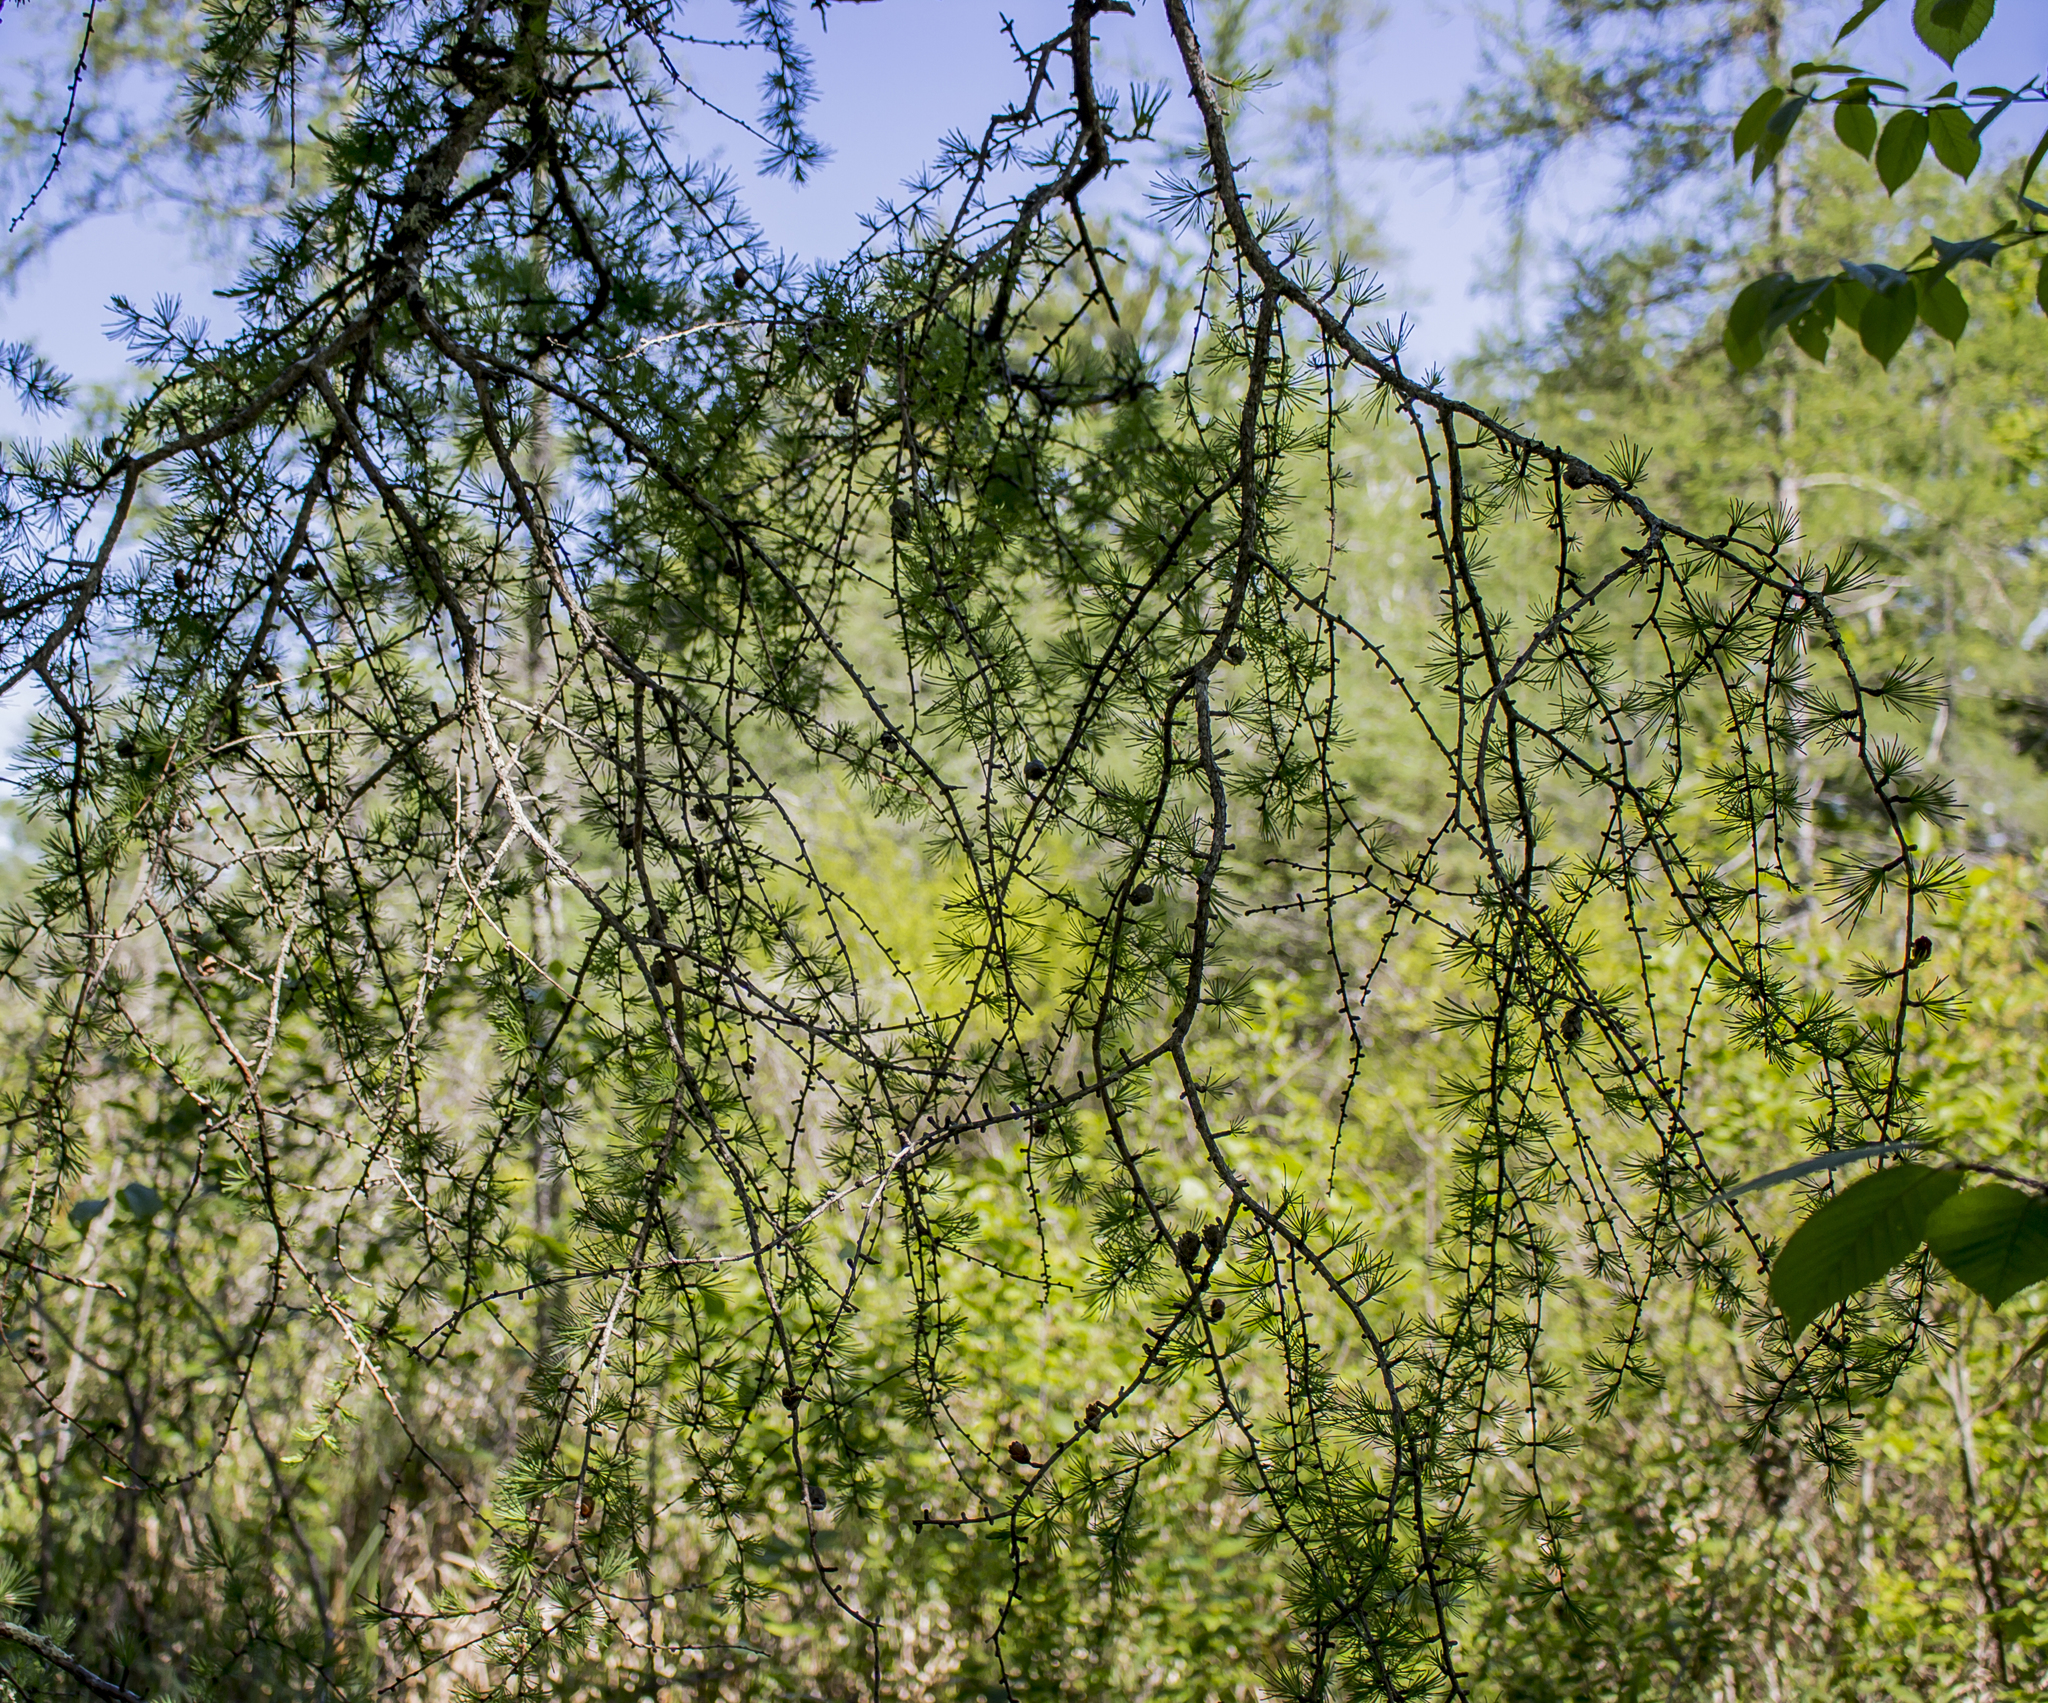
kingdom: Plantae
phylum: Tracheophyta
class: Pinopsida
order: Pinales
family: Pinaceae
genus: Larix
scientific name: Larix laricina
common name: American larch
